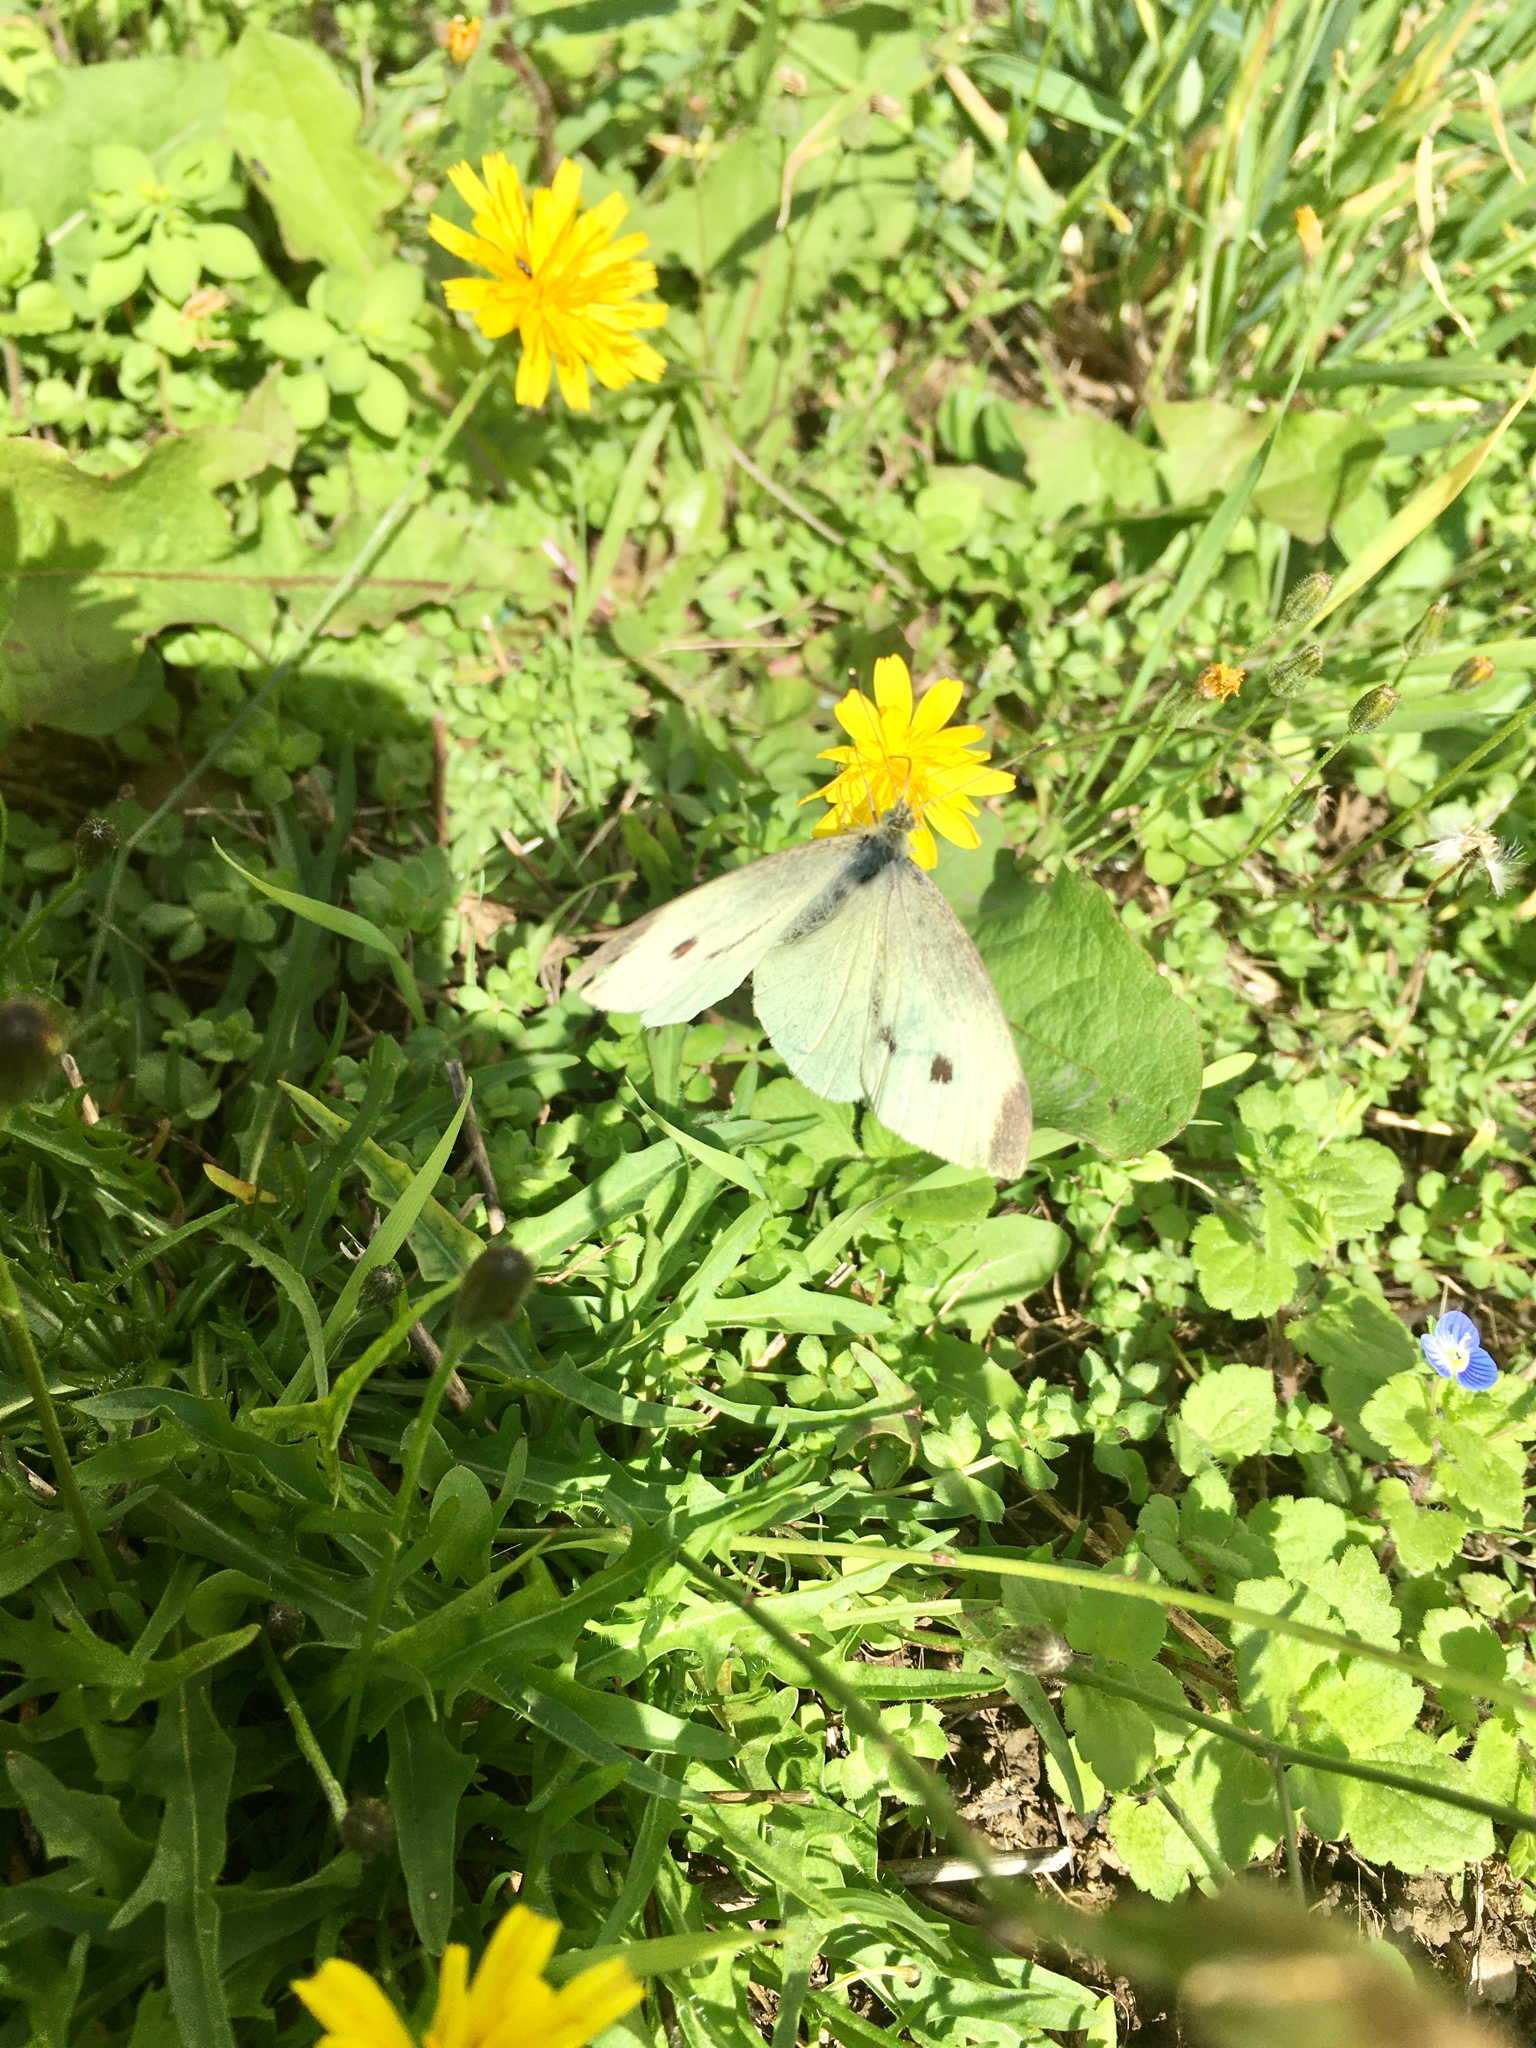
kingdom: Animalia
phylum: Arthropoda
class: Insecta
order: Lepidoptera
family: Pieridae
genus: Pieris
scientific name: Pieris rapae
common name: Small white
